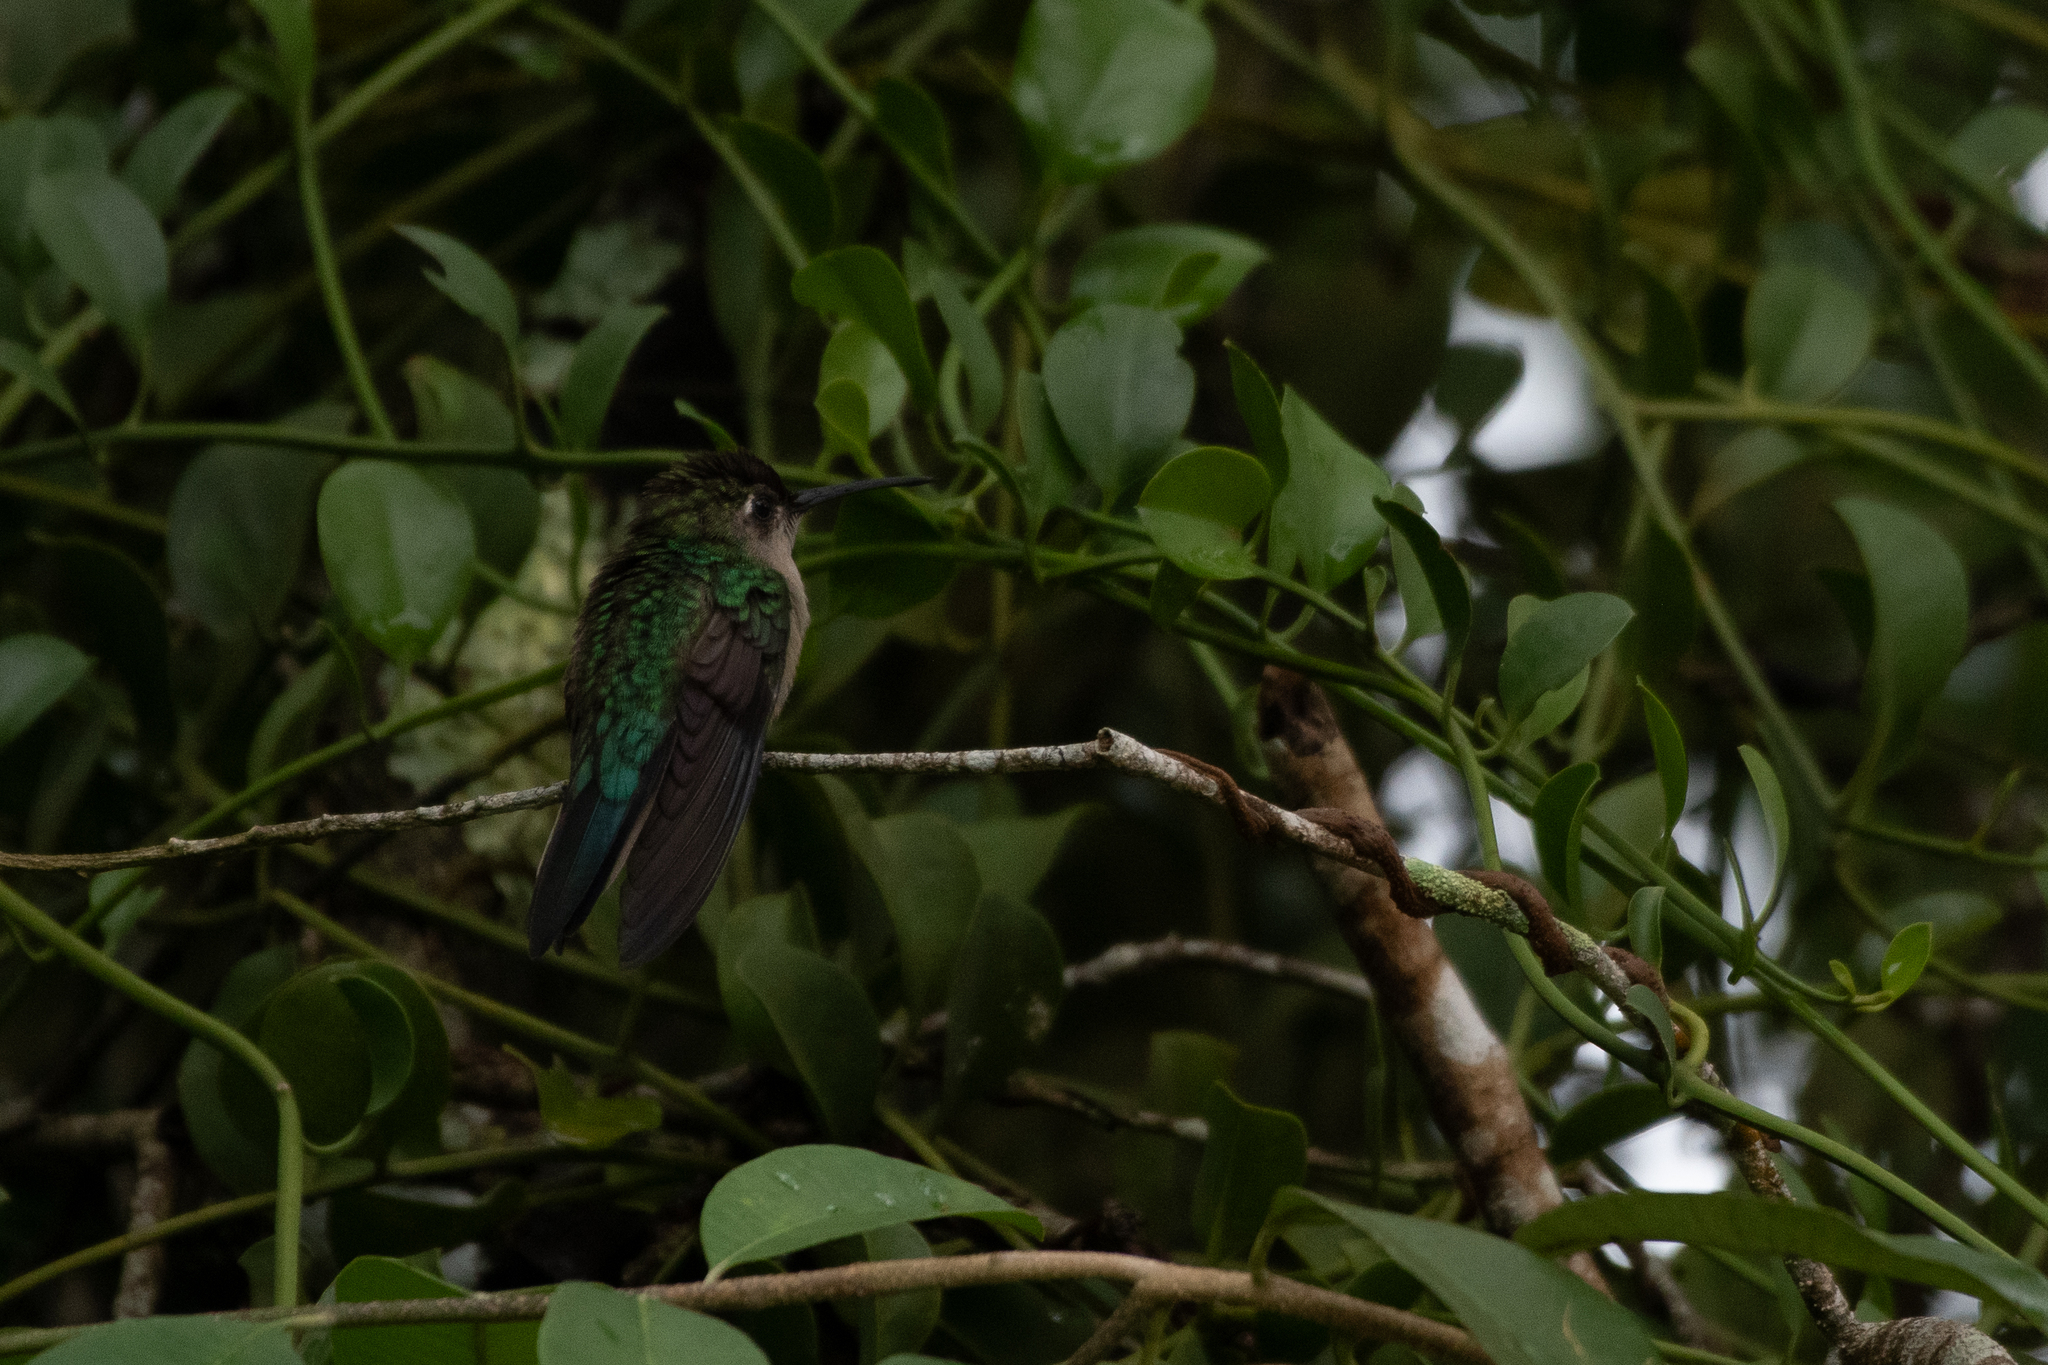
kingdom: Animalia
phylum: Chordata
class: Aves
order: Apodiformes
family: Trochilidae
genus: Pampa
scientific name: Pampa curvipennis
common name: Curve-winged sabrewing
